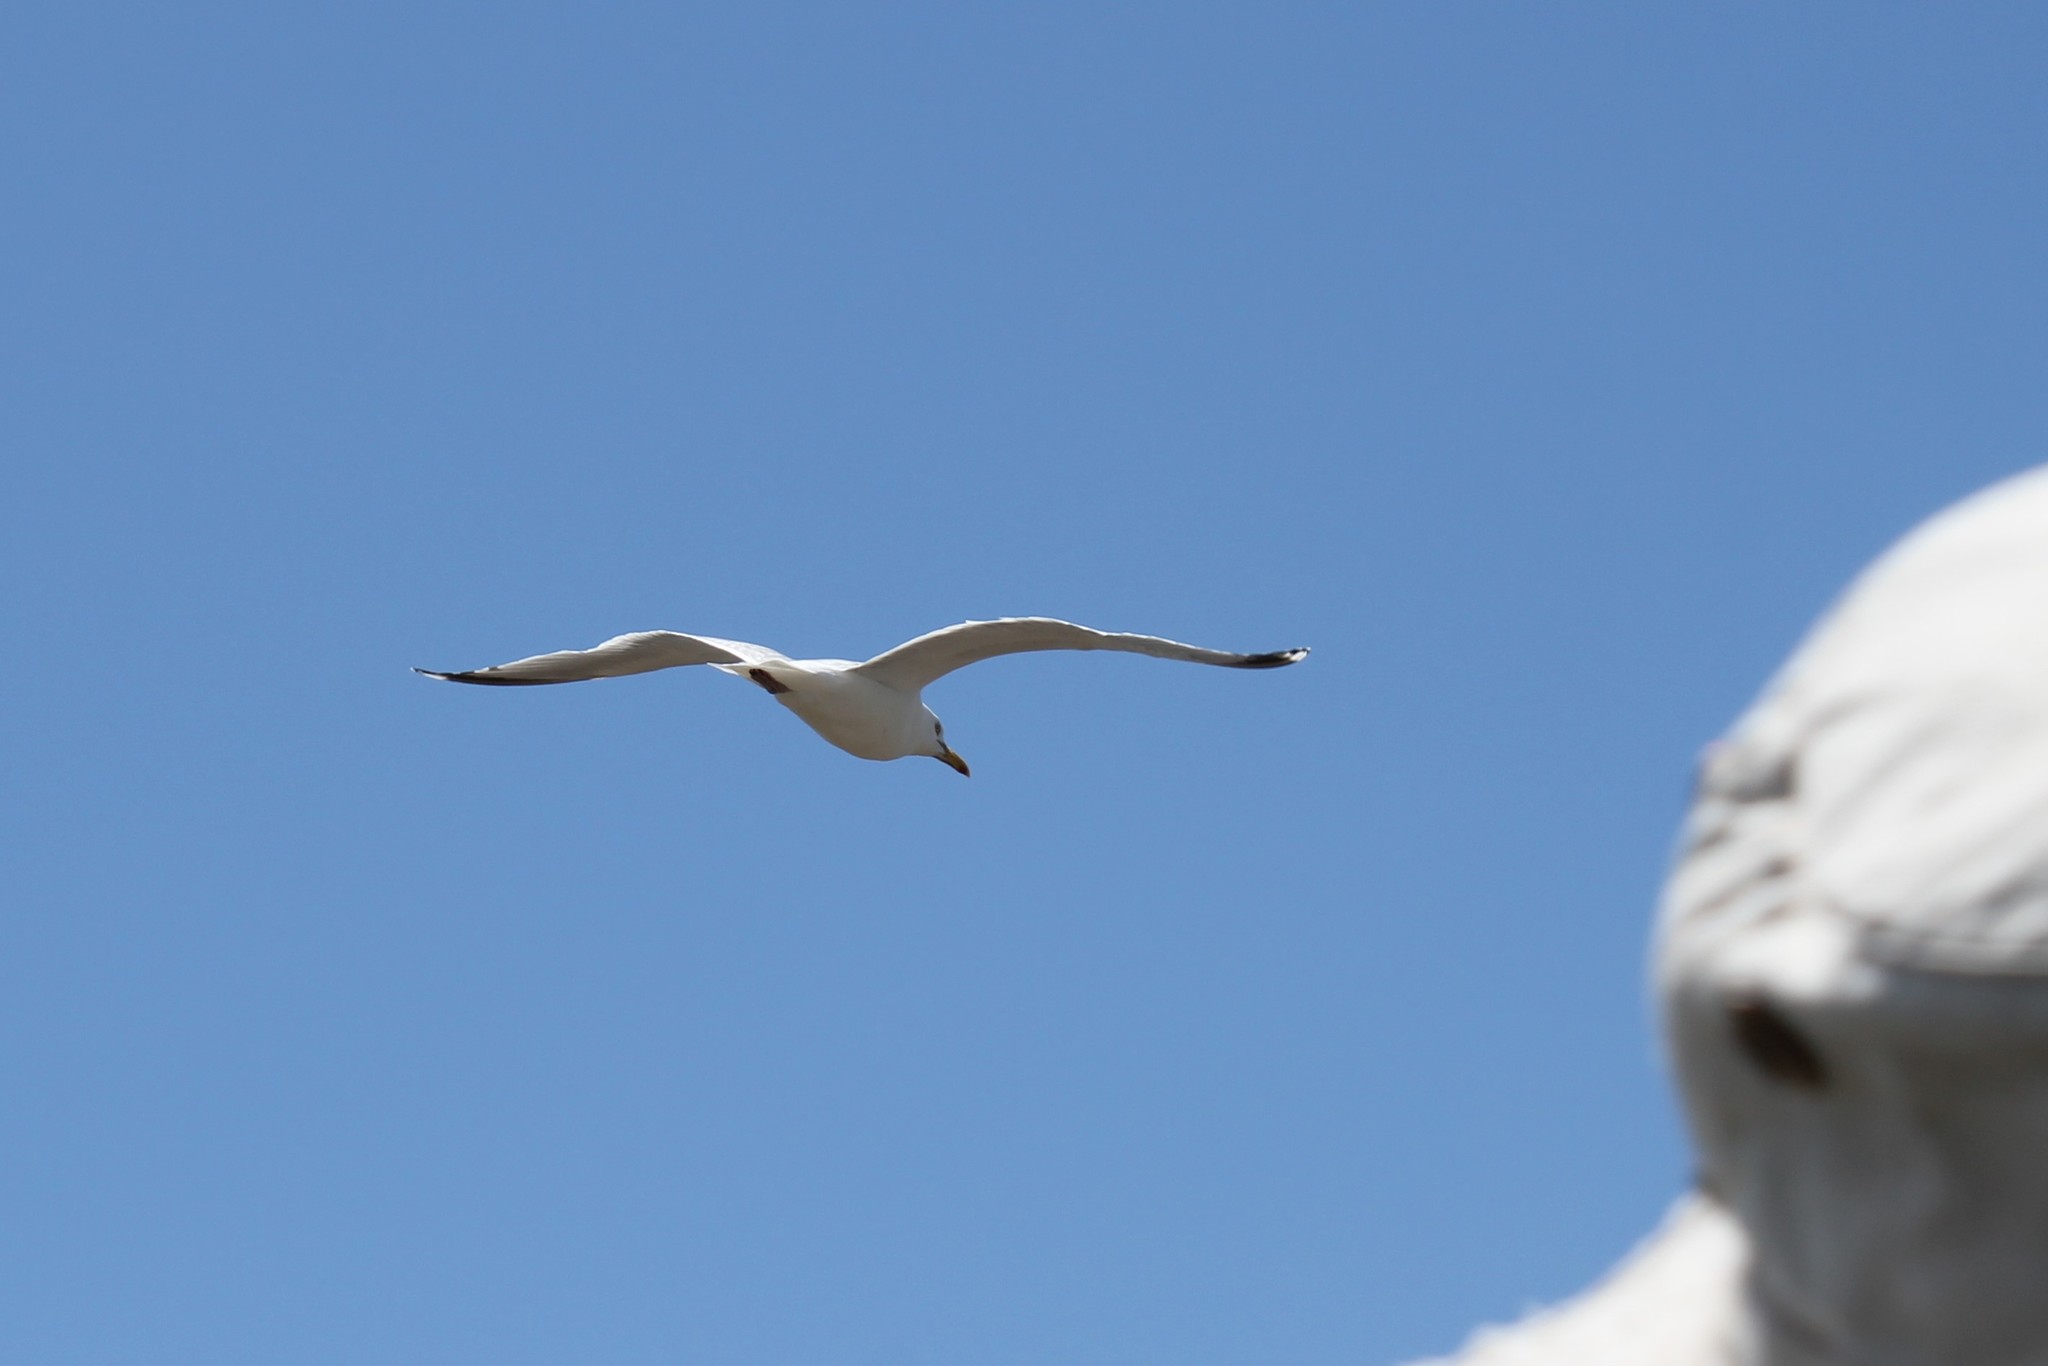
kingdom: Animalia
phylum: Chordata
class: Aves
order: Charadriiformes
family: Laridae
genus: Larus
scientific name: Larus argentatus
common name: Herring gull
